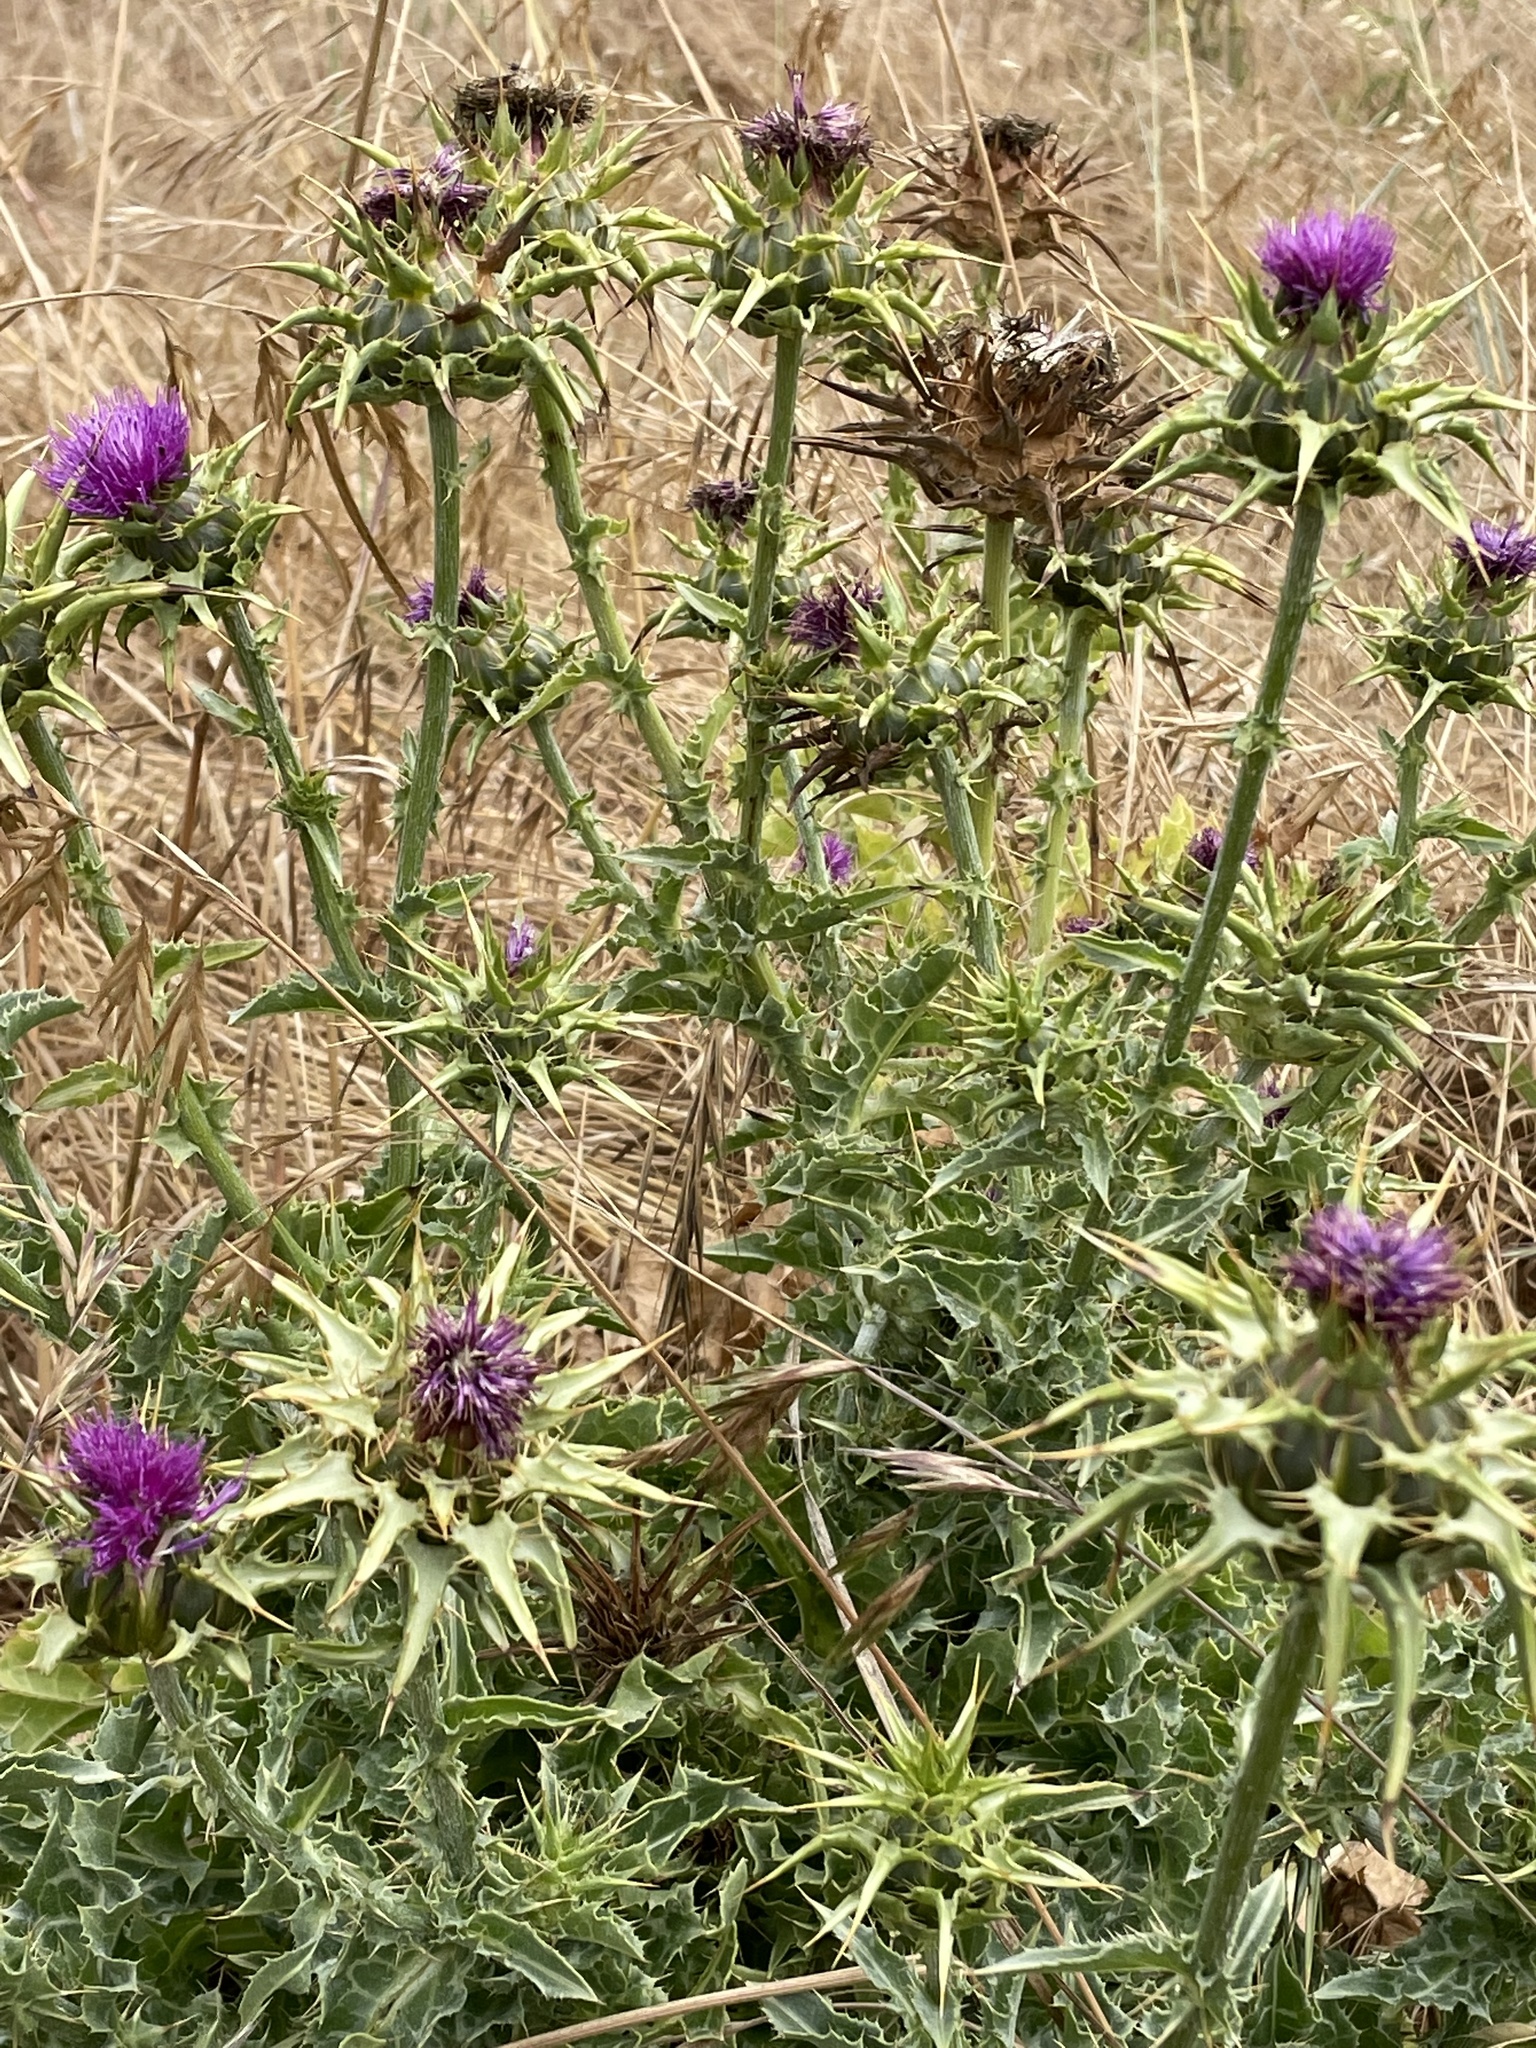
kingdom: Plantae
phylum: Tracheophyta
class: Magnoliopsida
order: Asterales
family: Asteraceae
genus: Silybum
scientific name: Silybum marianum
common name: Milk thistle
